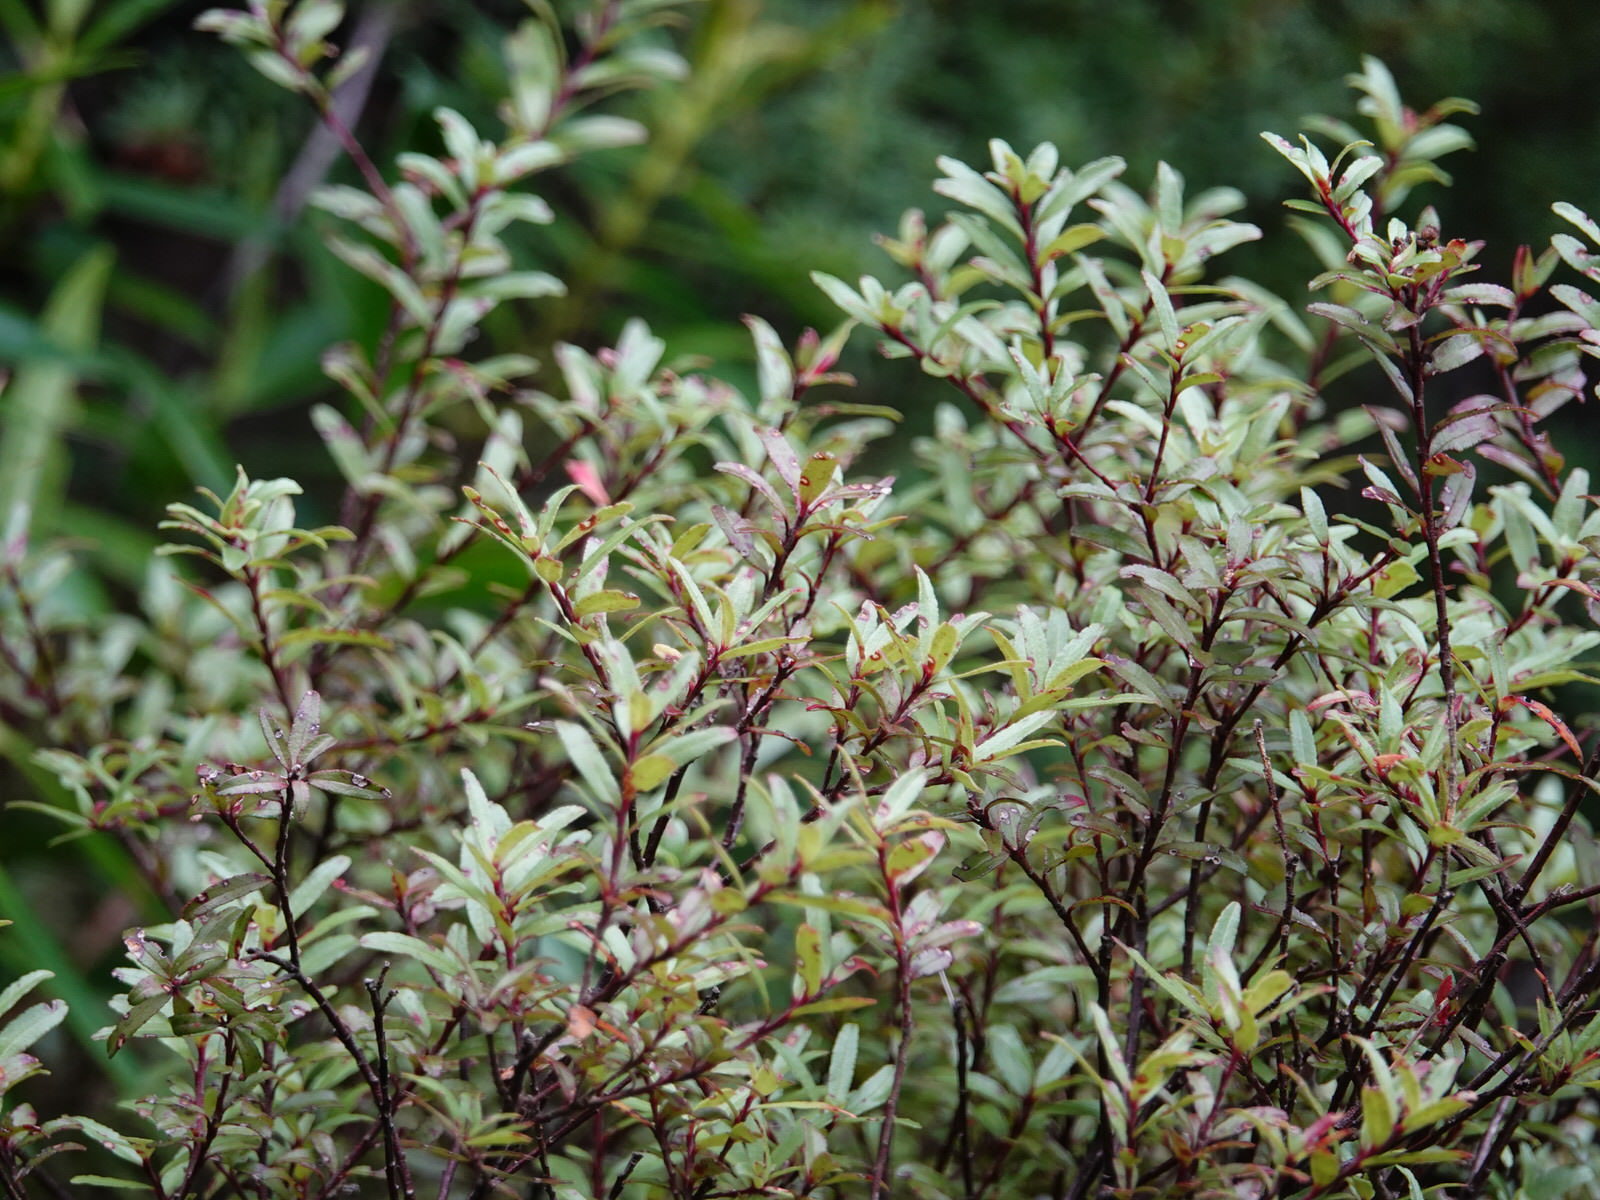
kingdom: Plantae
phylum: Tracheophyta
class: Magnoliopsida
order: Sapindales
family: Rutaceae
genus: Leionema
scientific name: Leionema nudum
